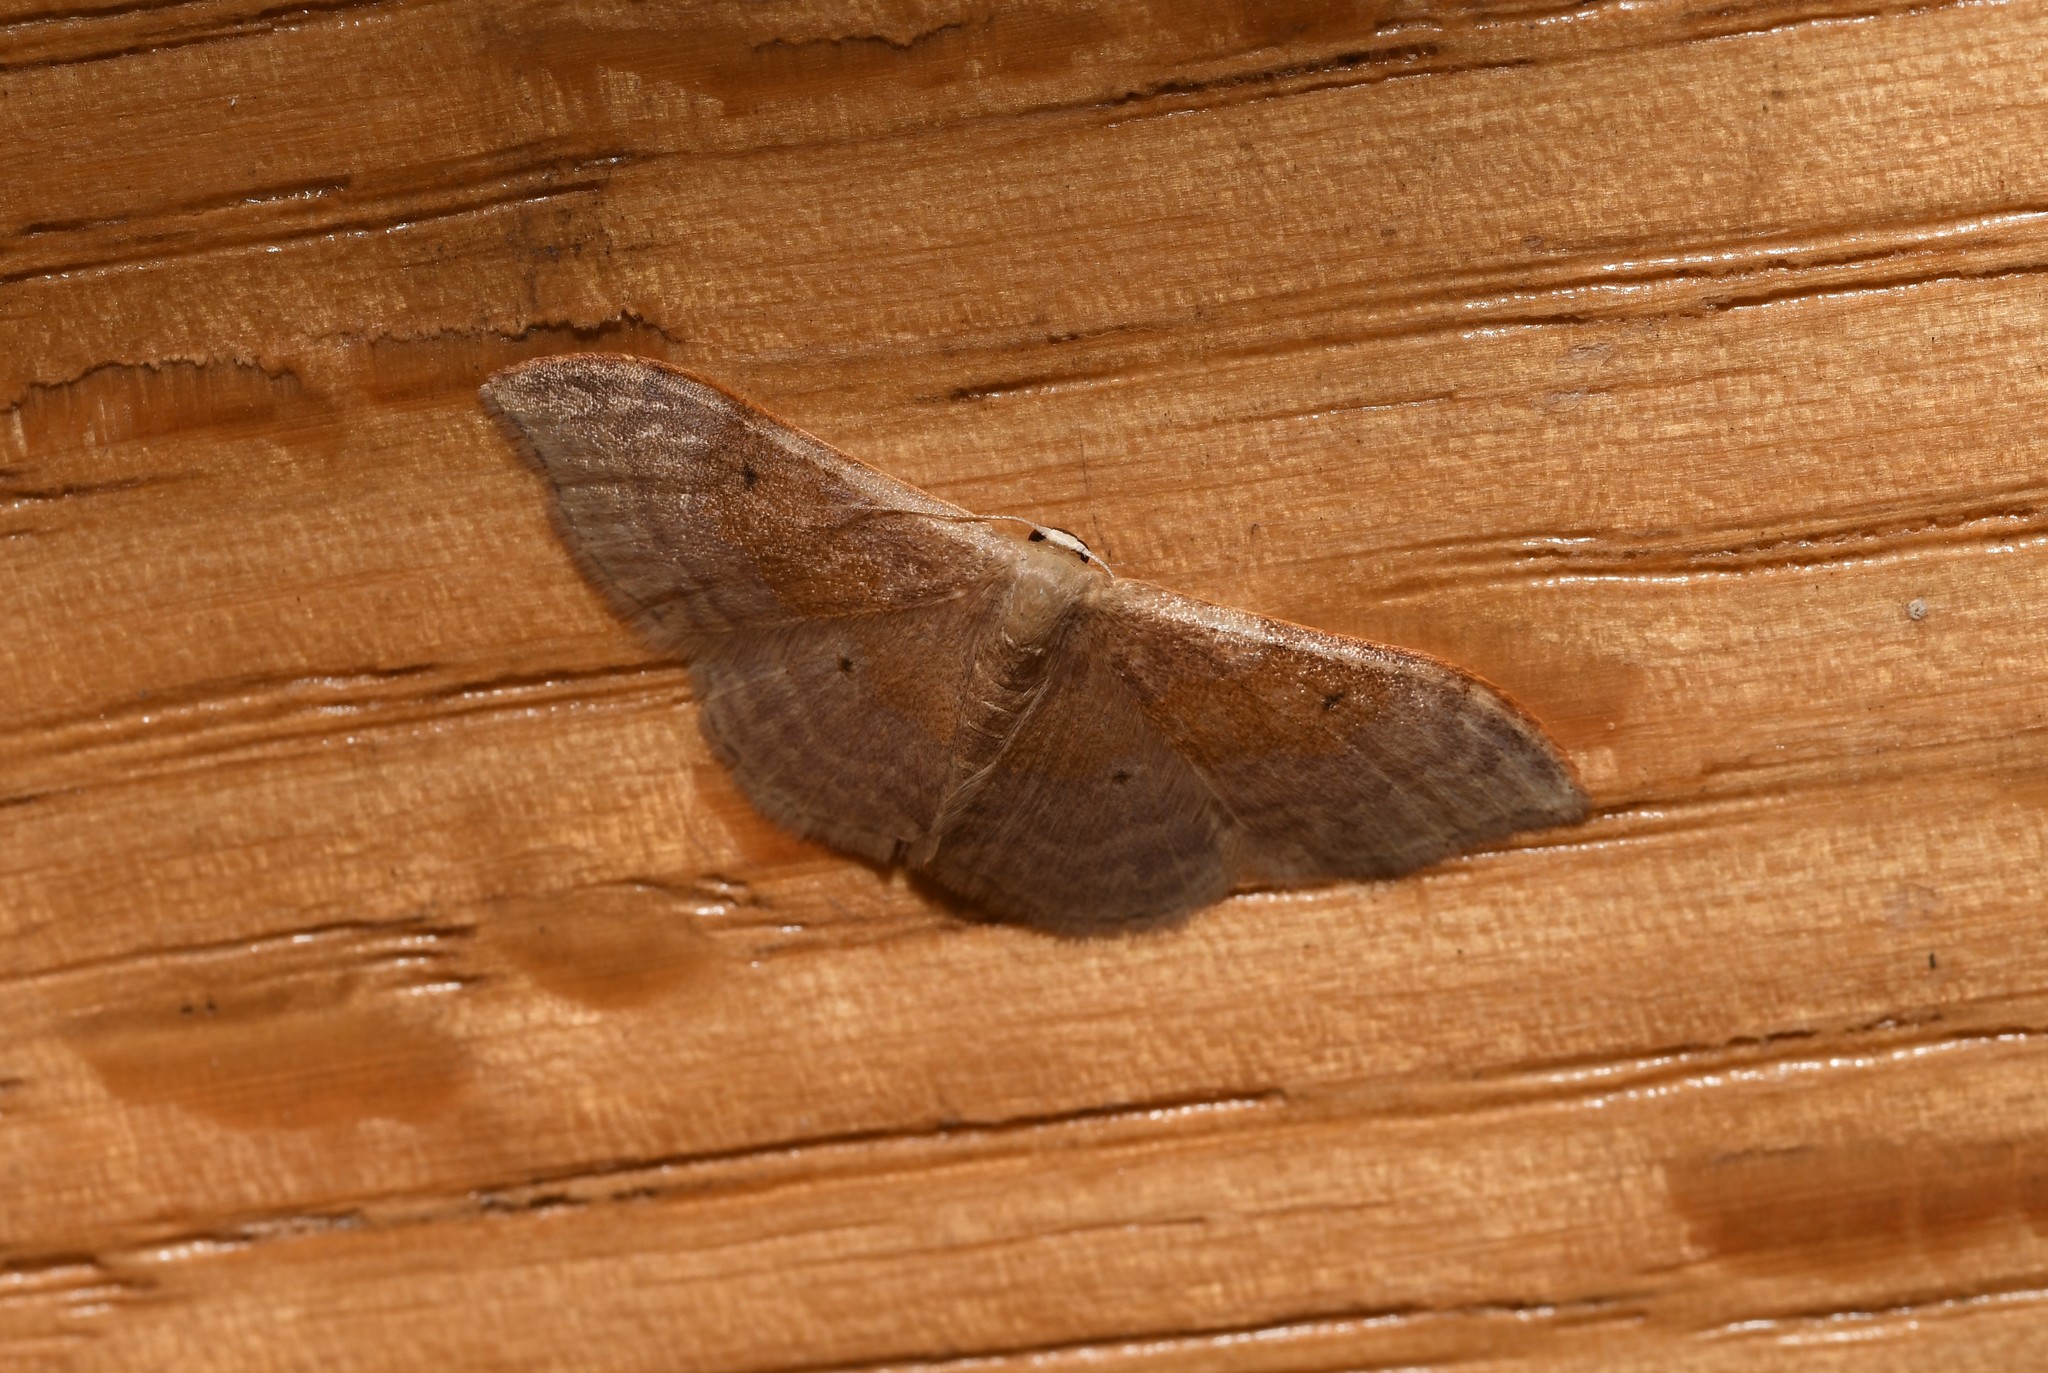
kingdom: Animalia
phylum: Arthropoda
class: Insecta
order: Lepidoptera
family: Geometridae
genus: Idaea
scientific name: Idaea degeneraria
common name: Portland ribbon wave
